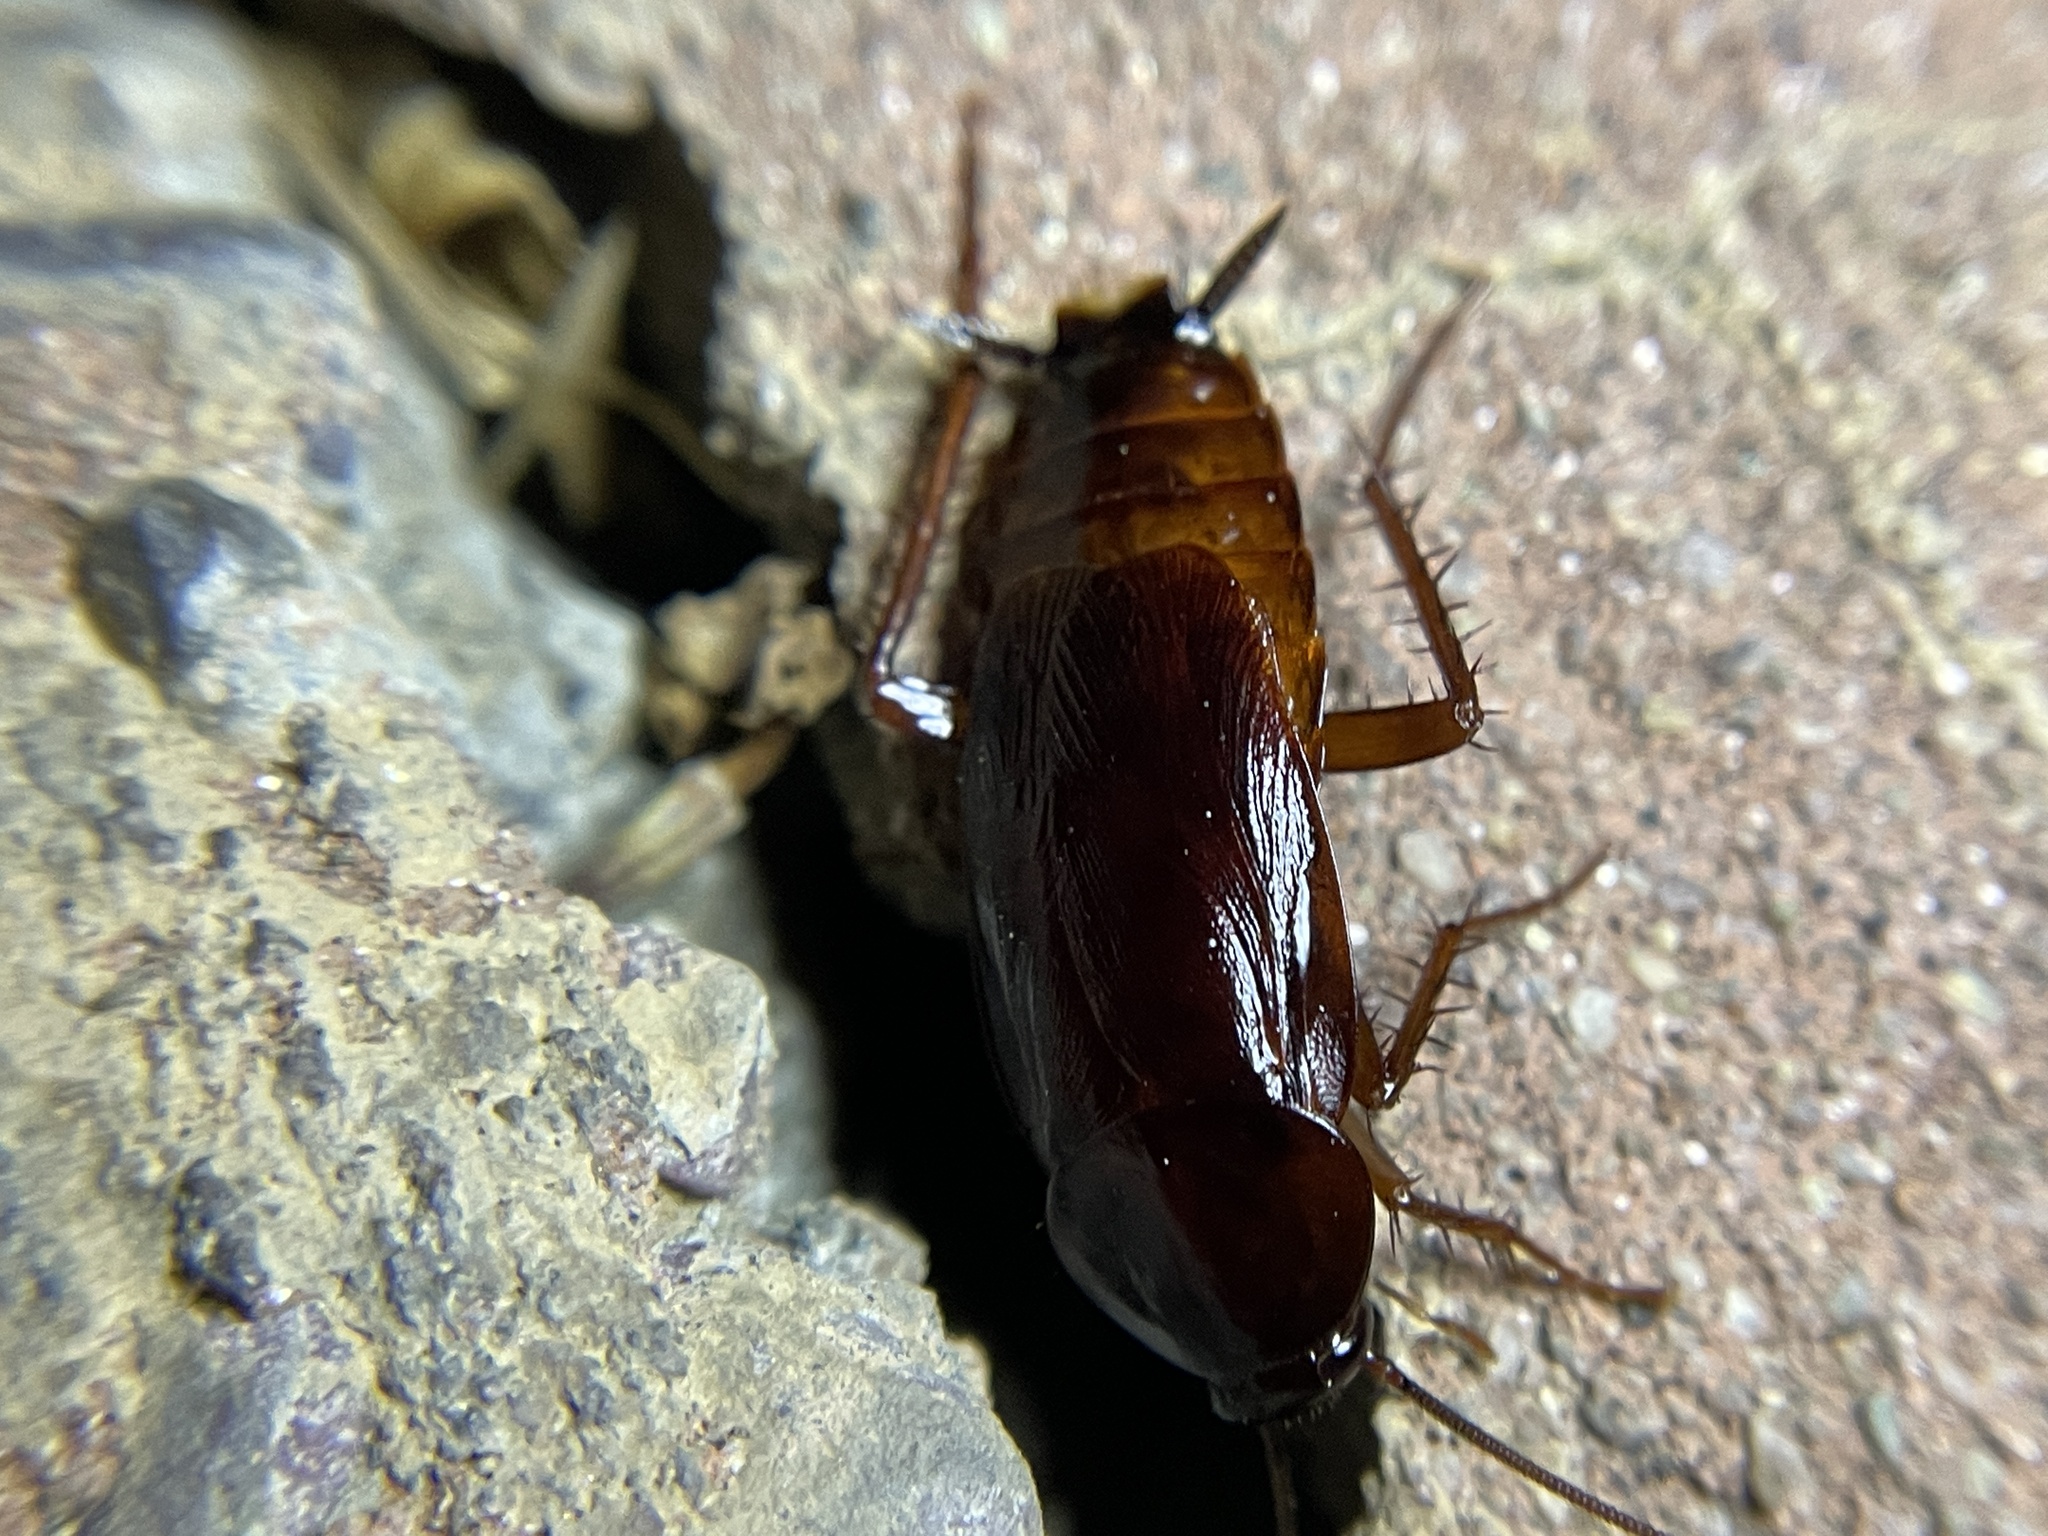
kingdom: Animalia
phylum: Arthropoda
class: Insecta
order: Blattodea
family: Blattidae
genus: Blatta
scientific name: Blatta orientalis
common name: Oriental cockroach
